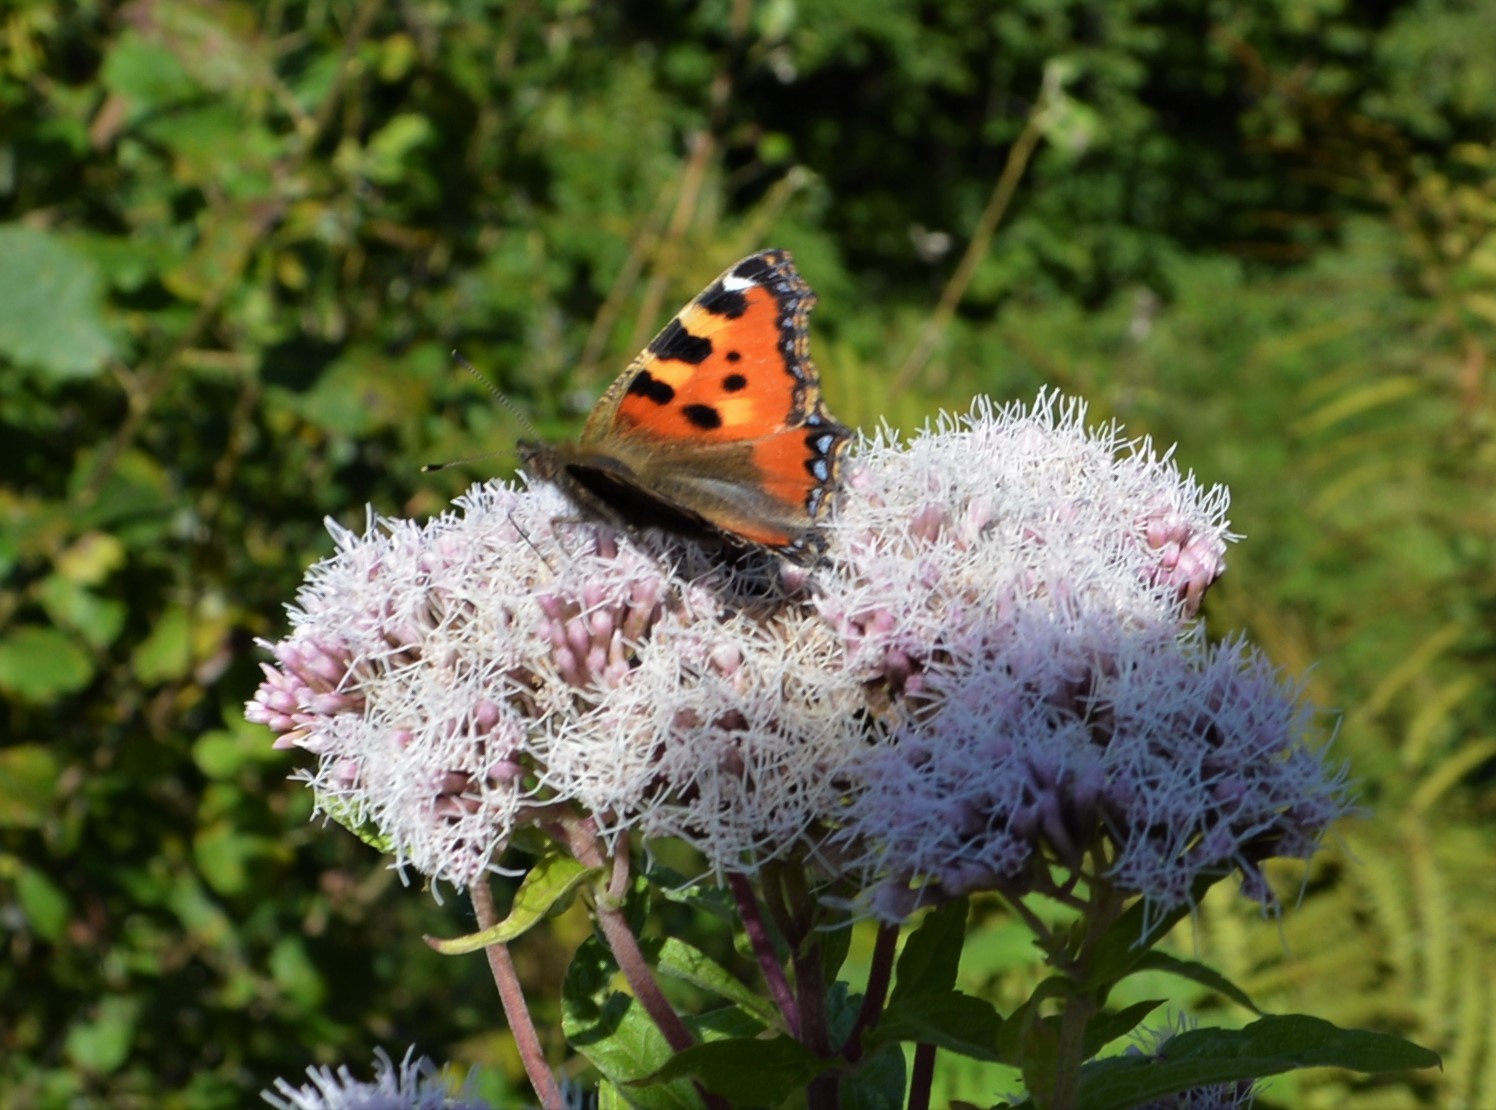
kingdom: Animalia
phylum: Arthropoda
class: Insecta
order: Lepidoptera
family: Nymphalidae
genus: Aglais
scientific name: Aglais urticae
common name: Small tortoiseshell
